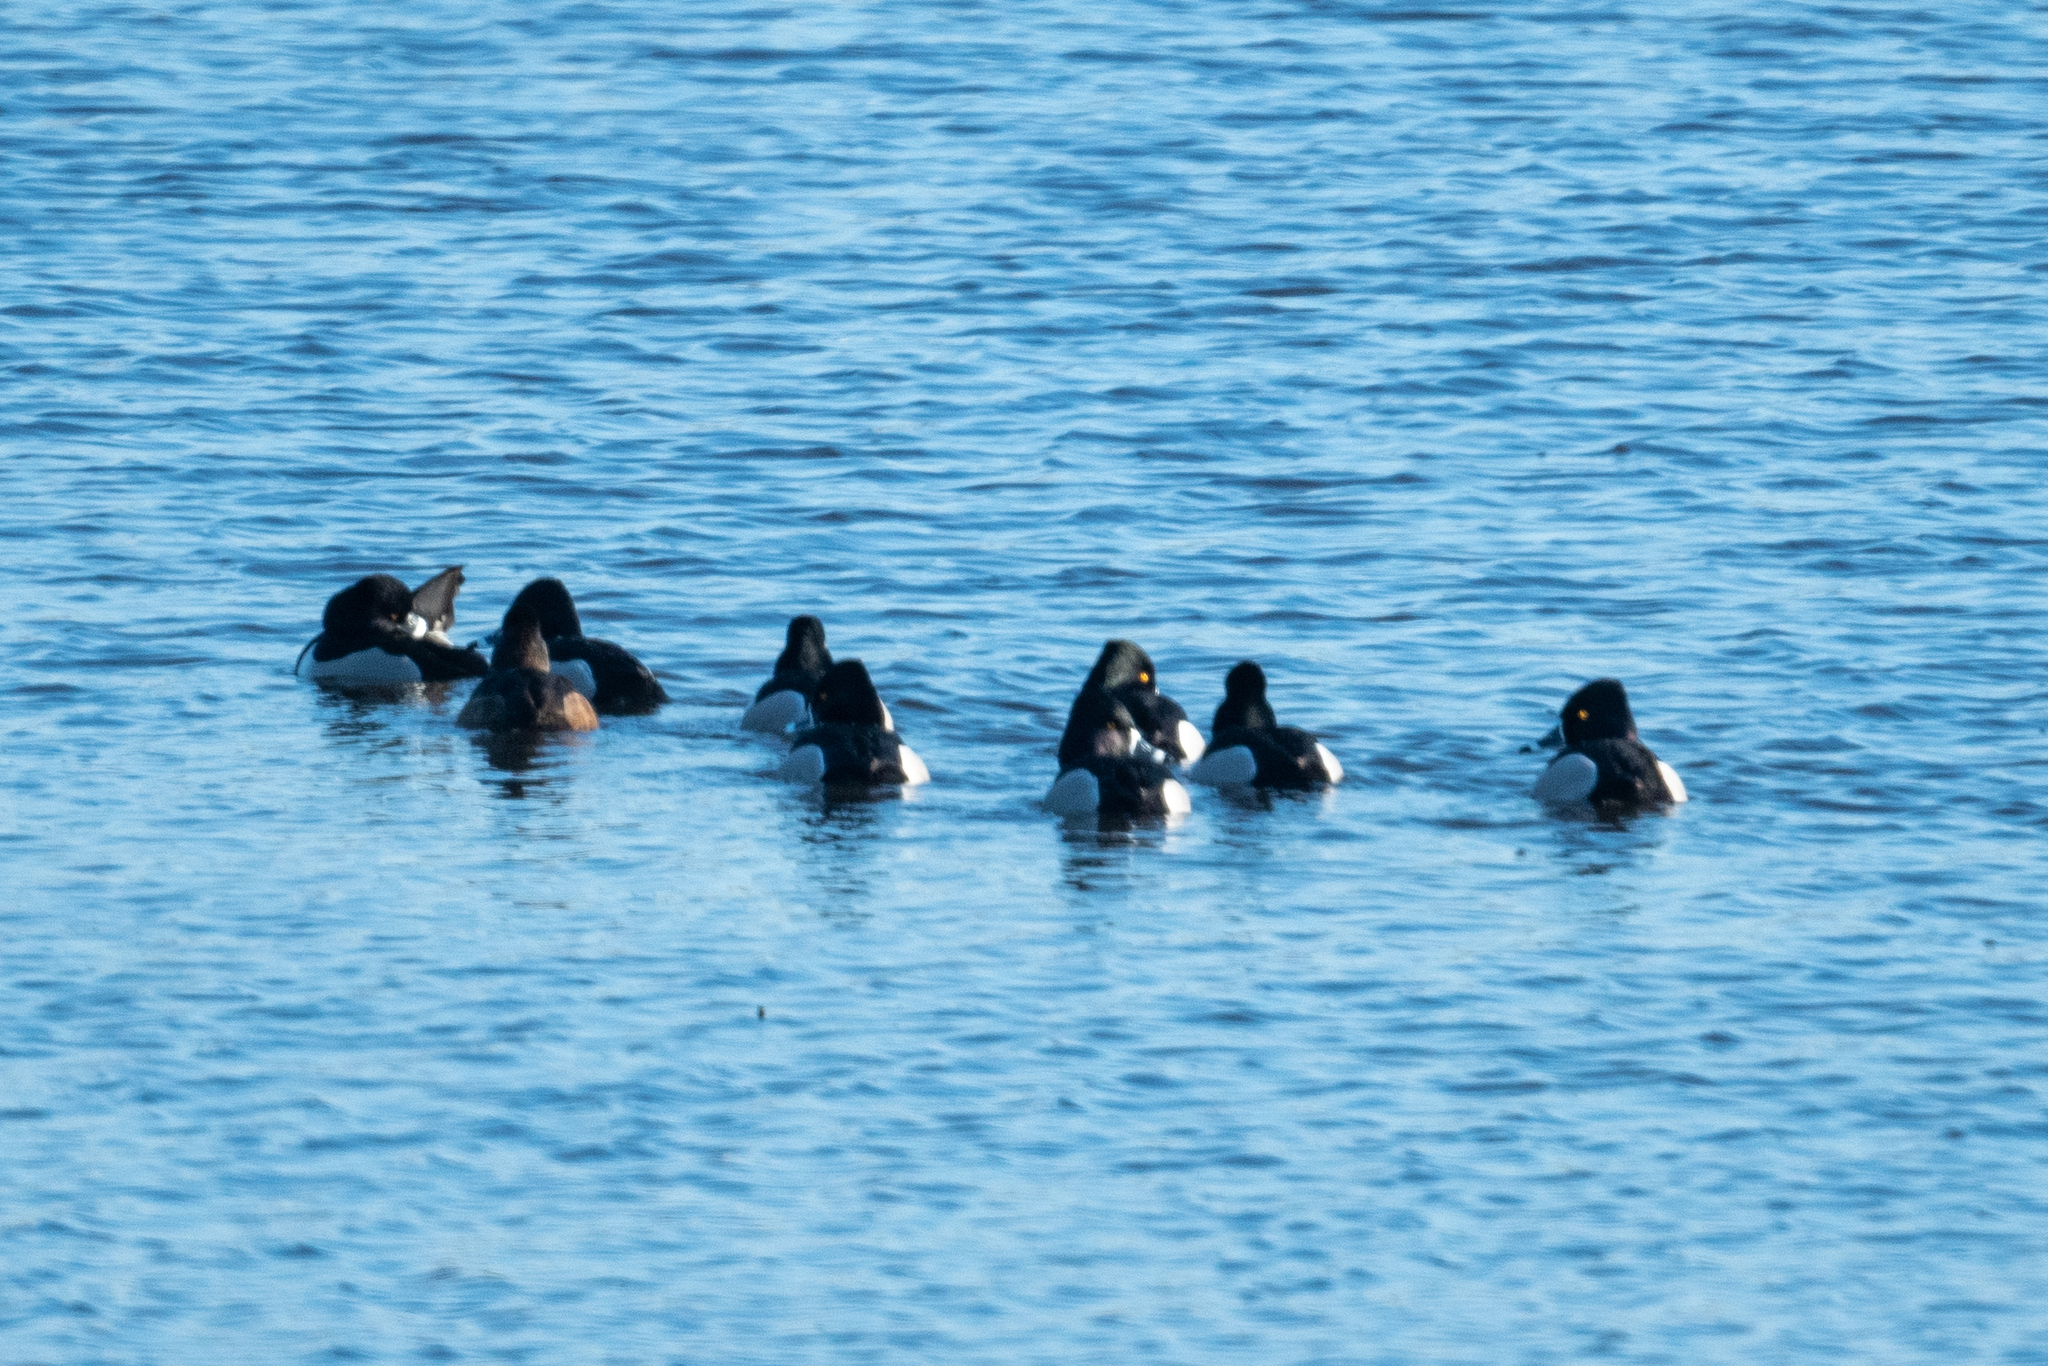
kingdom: Animalia
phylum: Chordata
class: Aves
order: Anseriformes
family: Anatidae
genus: Aythya
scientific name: Aythya collaris
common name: Ring-necked duck
